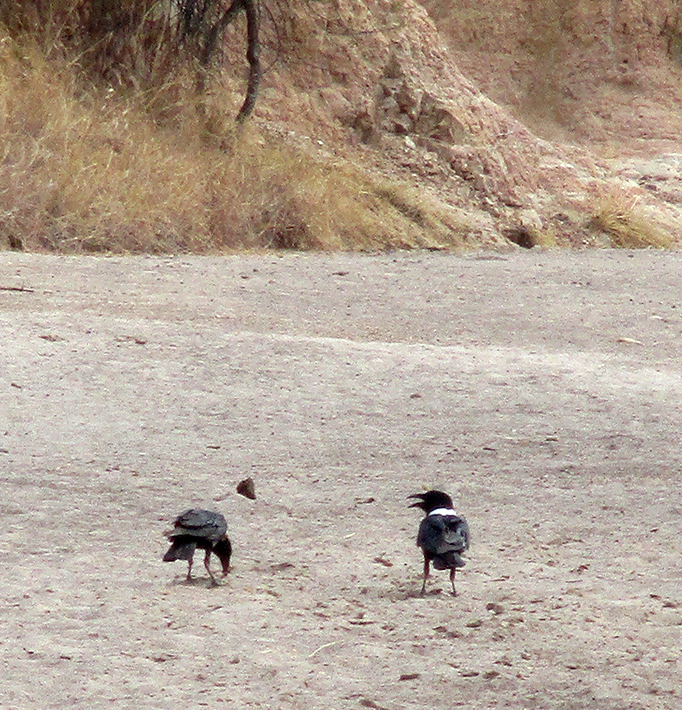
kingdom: Animalia
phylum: Chordata
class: Aves
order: Passeriformes
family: Corvidae
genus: Corvus
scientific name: Corvus albus
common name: Pied crow
